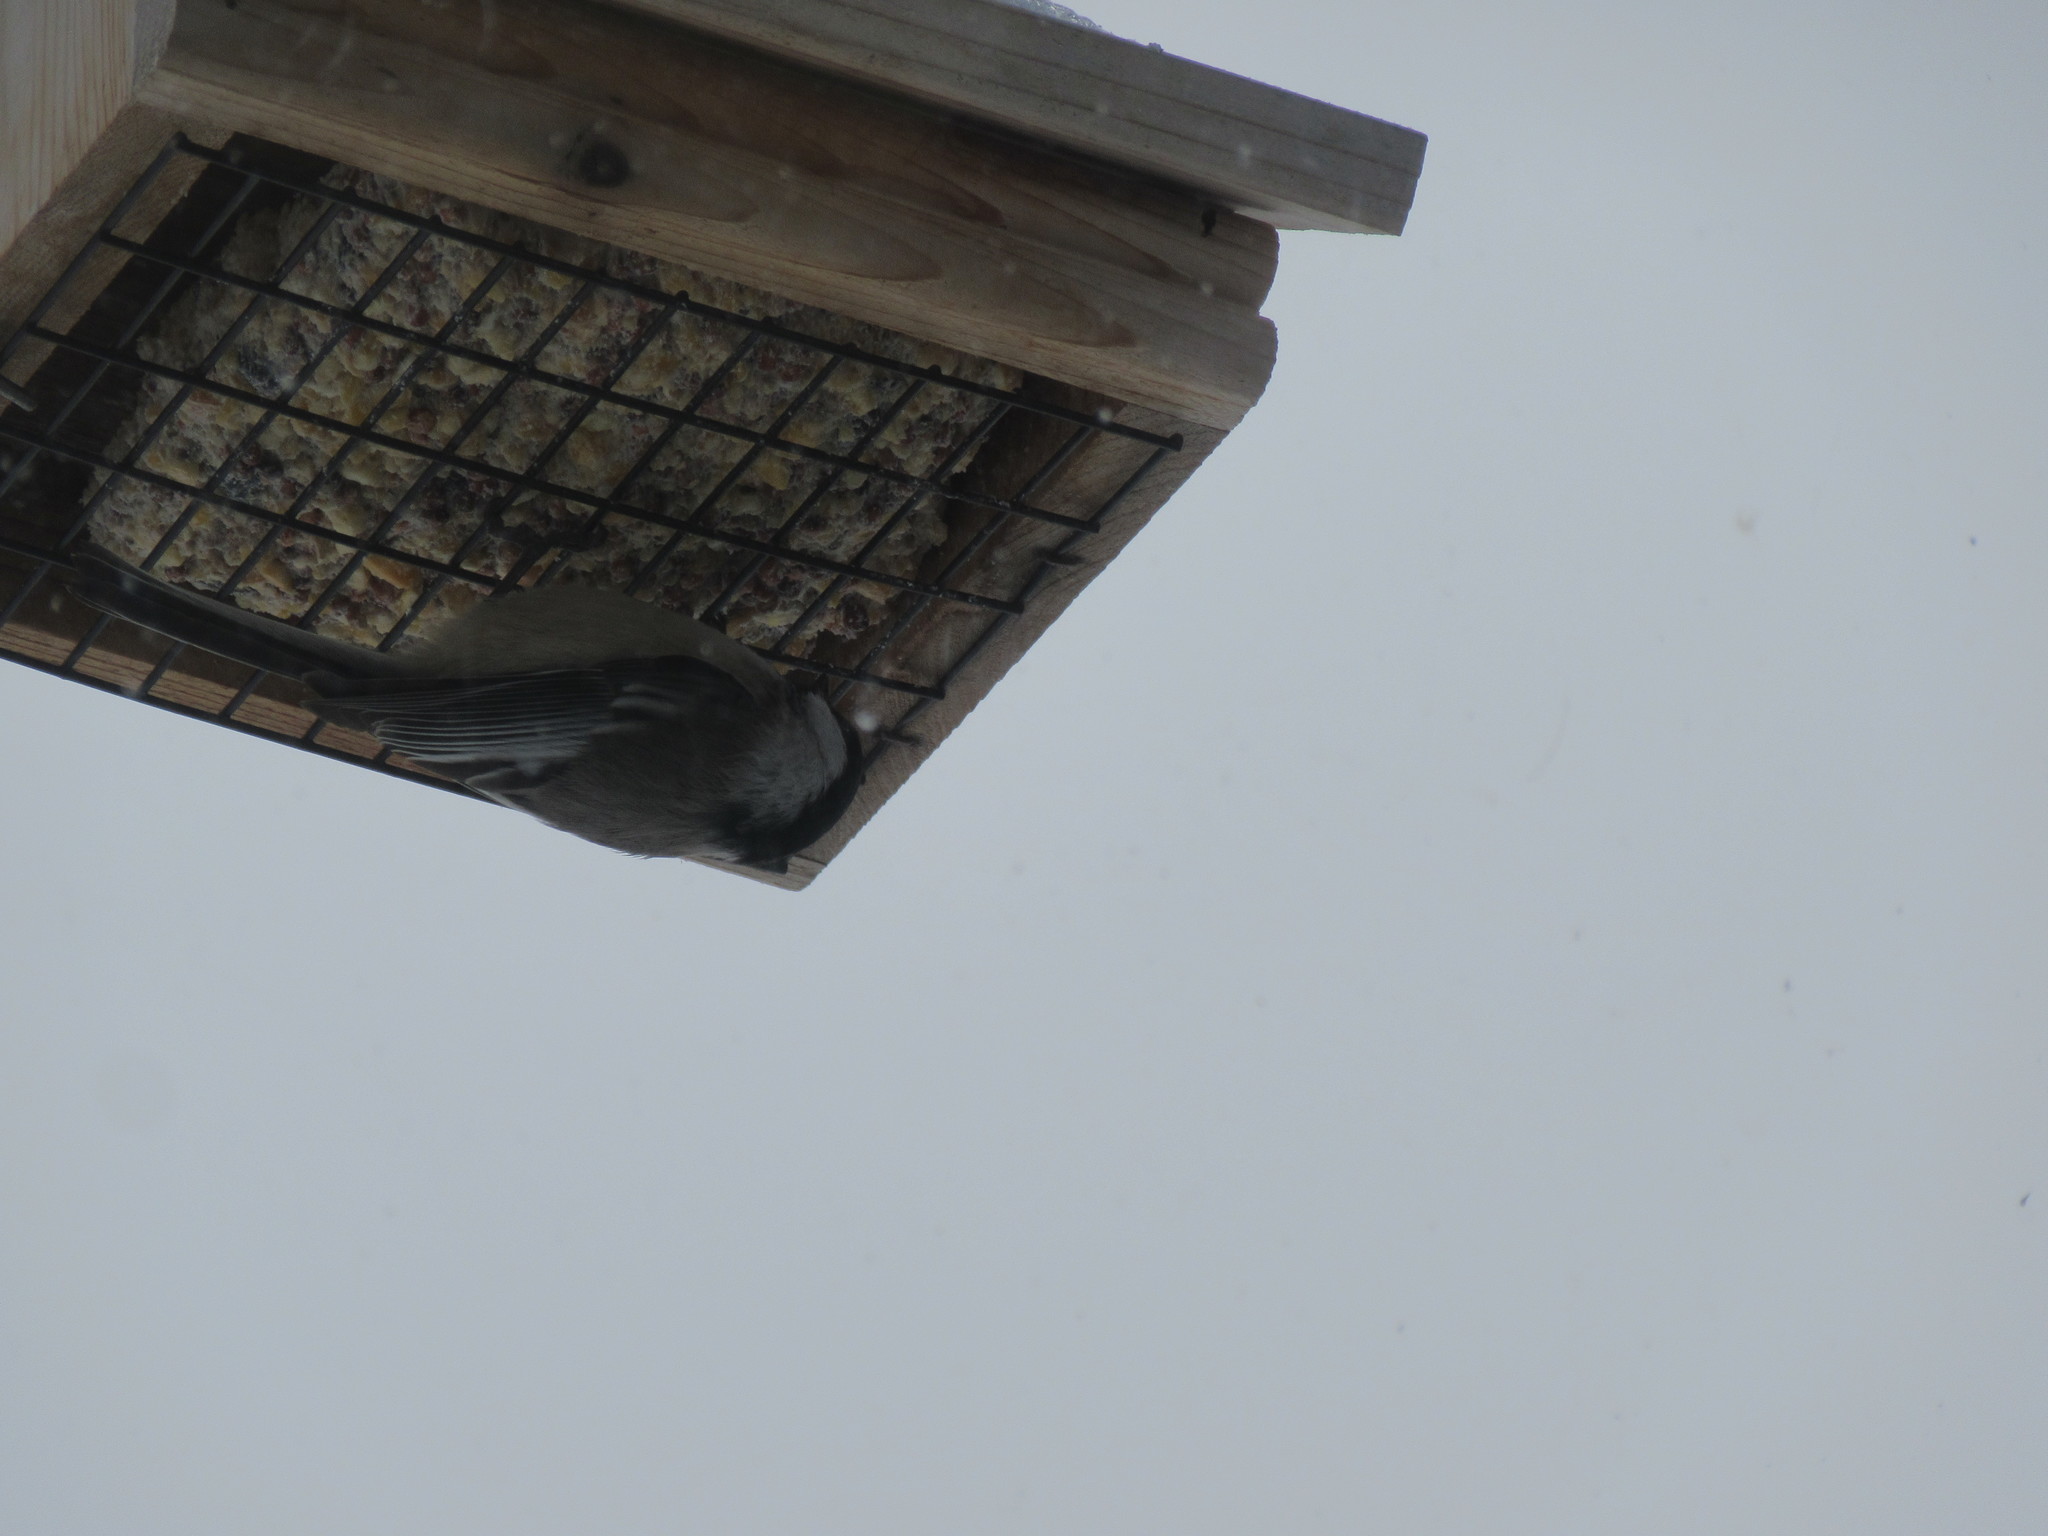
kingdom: Animalia
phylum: Chordata
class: Aves
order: Passeriformes
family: Paridae
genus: Poecile
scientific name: Poecile atricapillus
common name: Black-capped chickadee
